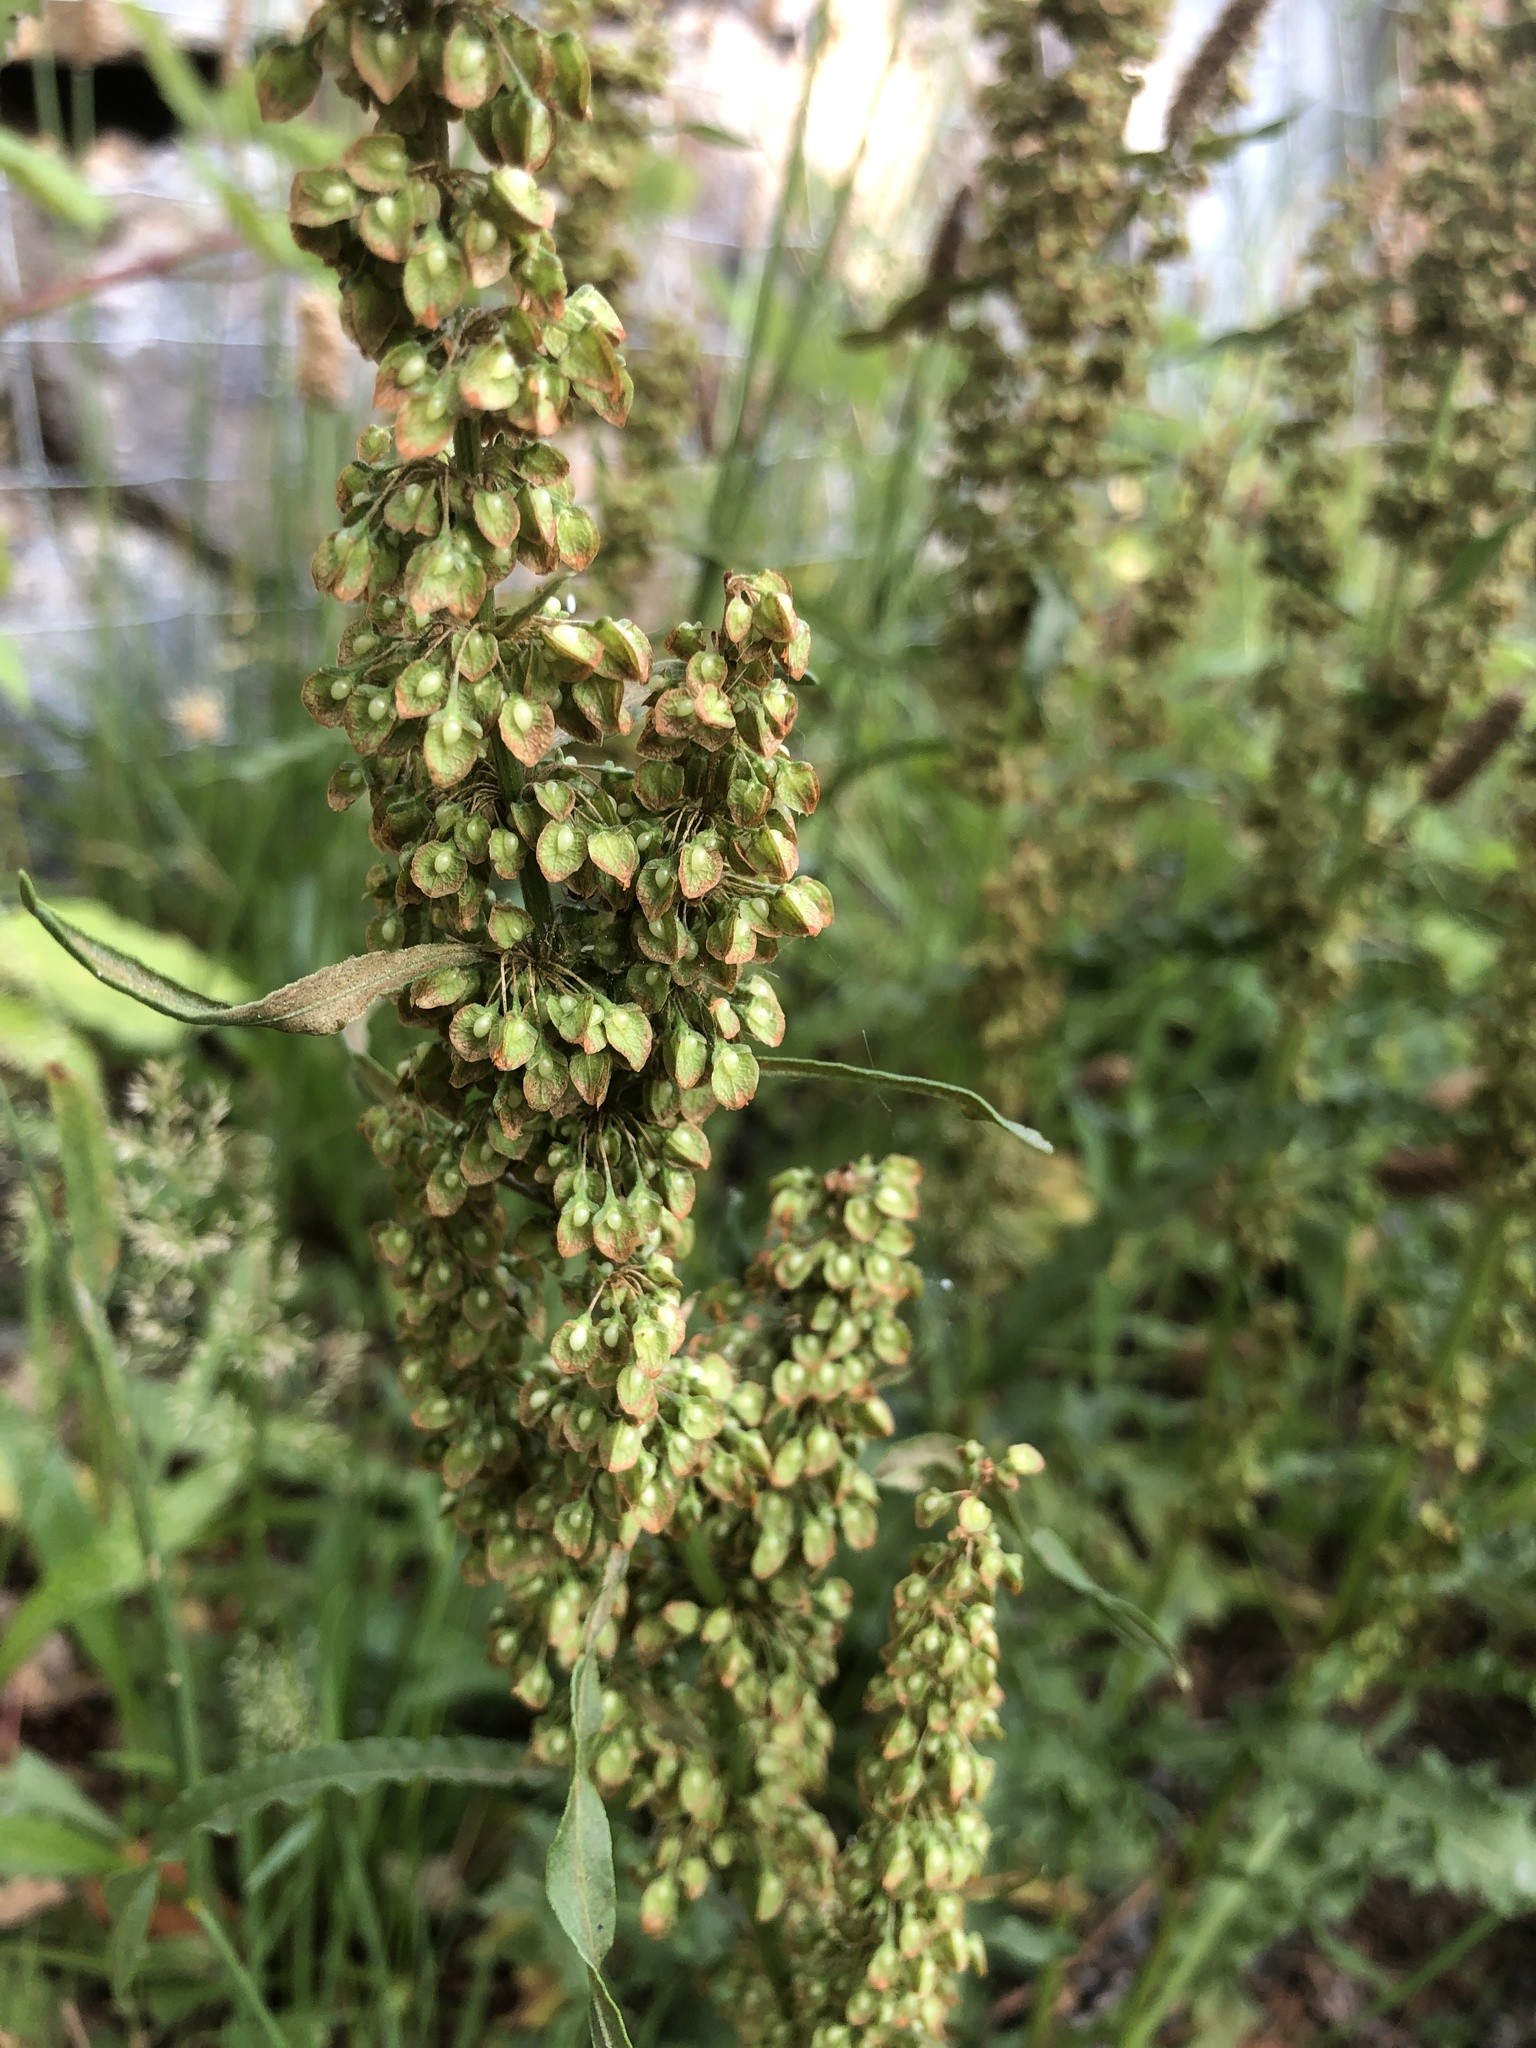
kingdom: Plantae
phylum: Tracheophyta
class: Magnoliopsida
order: Caryophyllales
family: Polygonaceae
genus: Rumex
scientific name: Rumex crispus
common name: Curled dock
